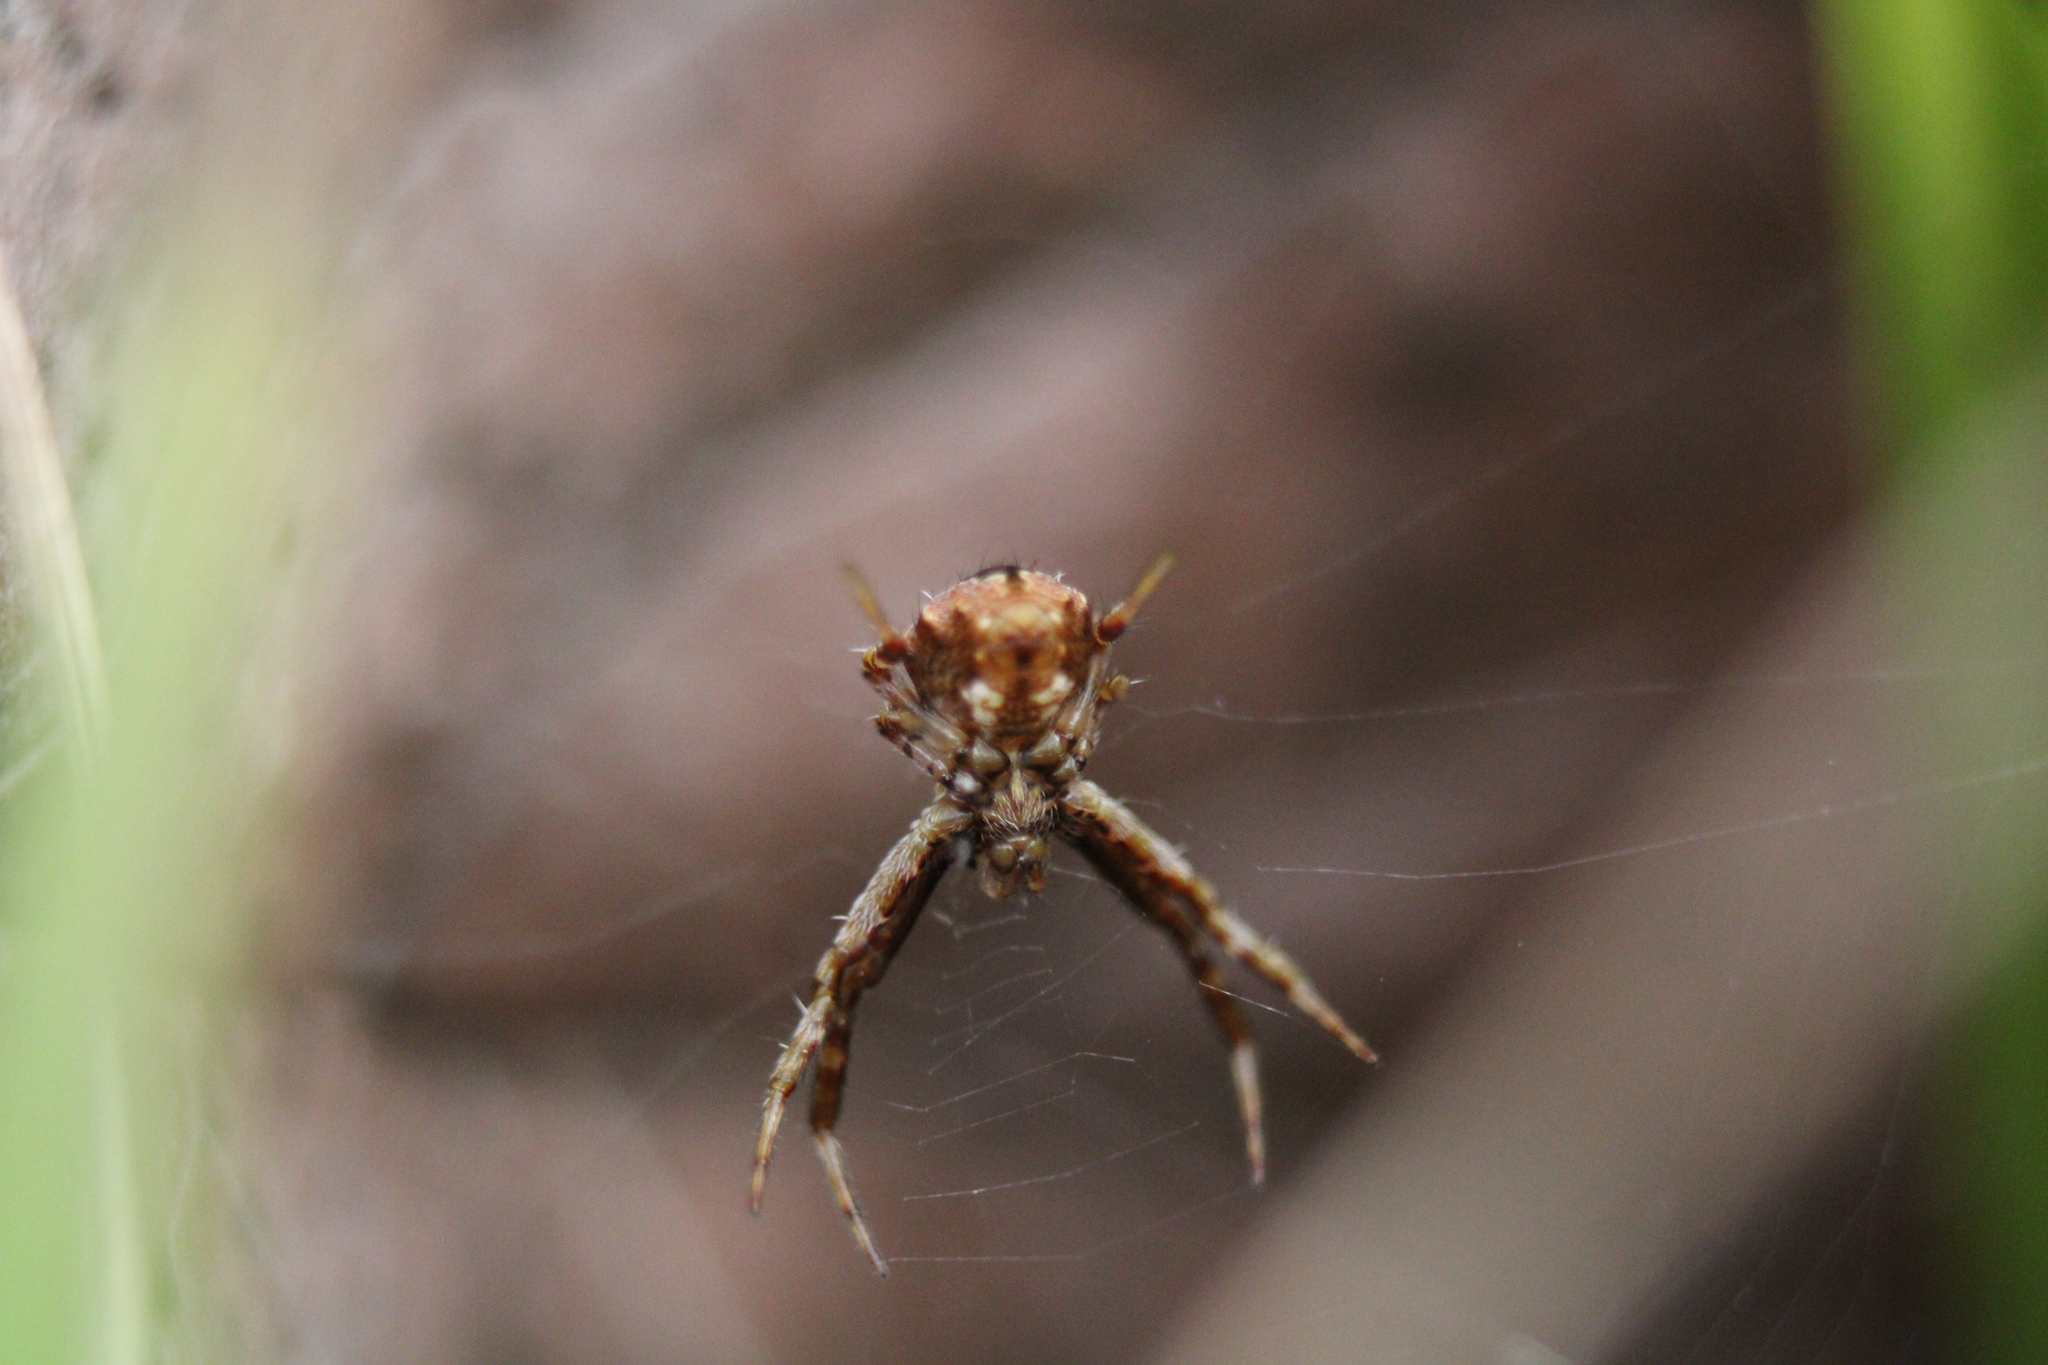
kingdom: Animalia
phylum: Arthropoda
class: Arachnida
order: Araneae
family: Araneidae
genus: Gea
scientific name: Gea heptagon
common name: Orb weavers
